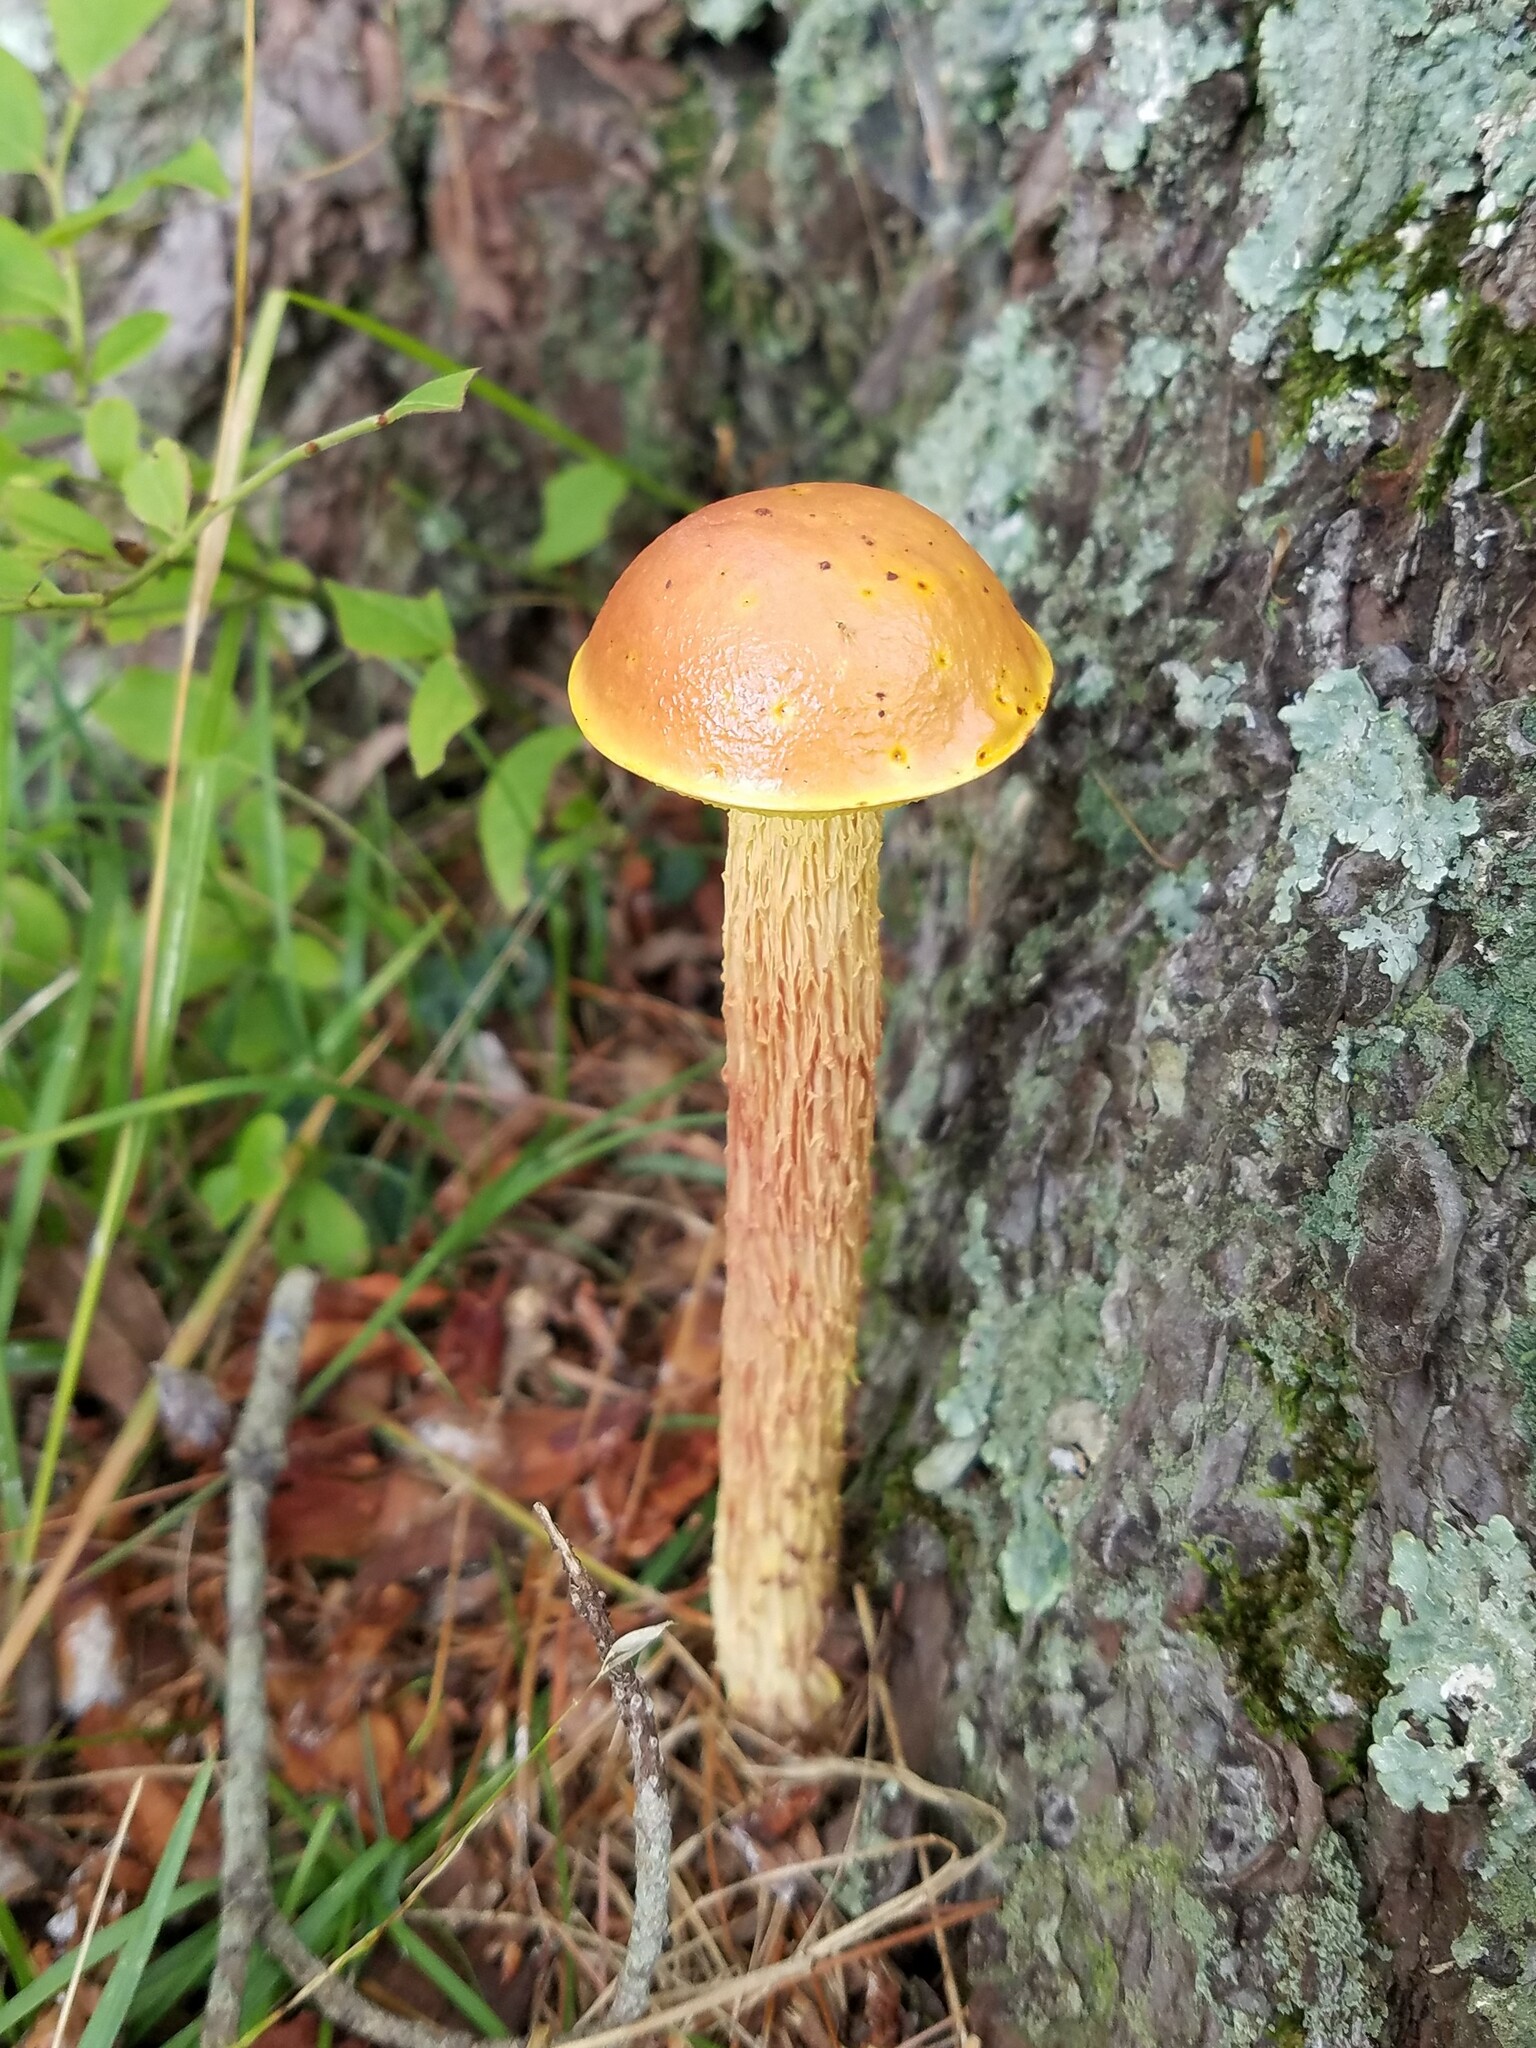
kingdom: Fungi
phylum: Basidiomycota
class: Agaricomycetes
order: Boletales
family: Boletaceae
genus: Aureoboletus
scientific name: Aureoboletus betula
